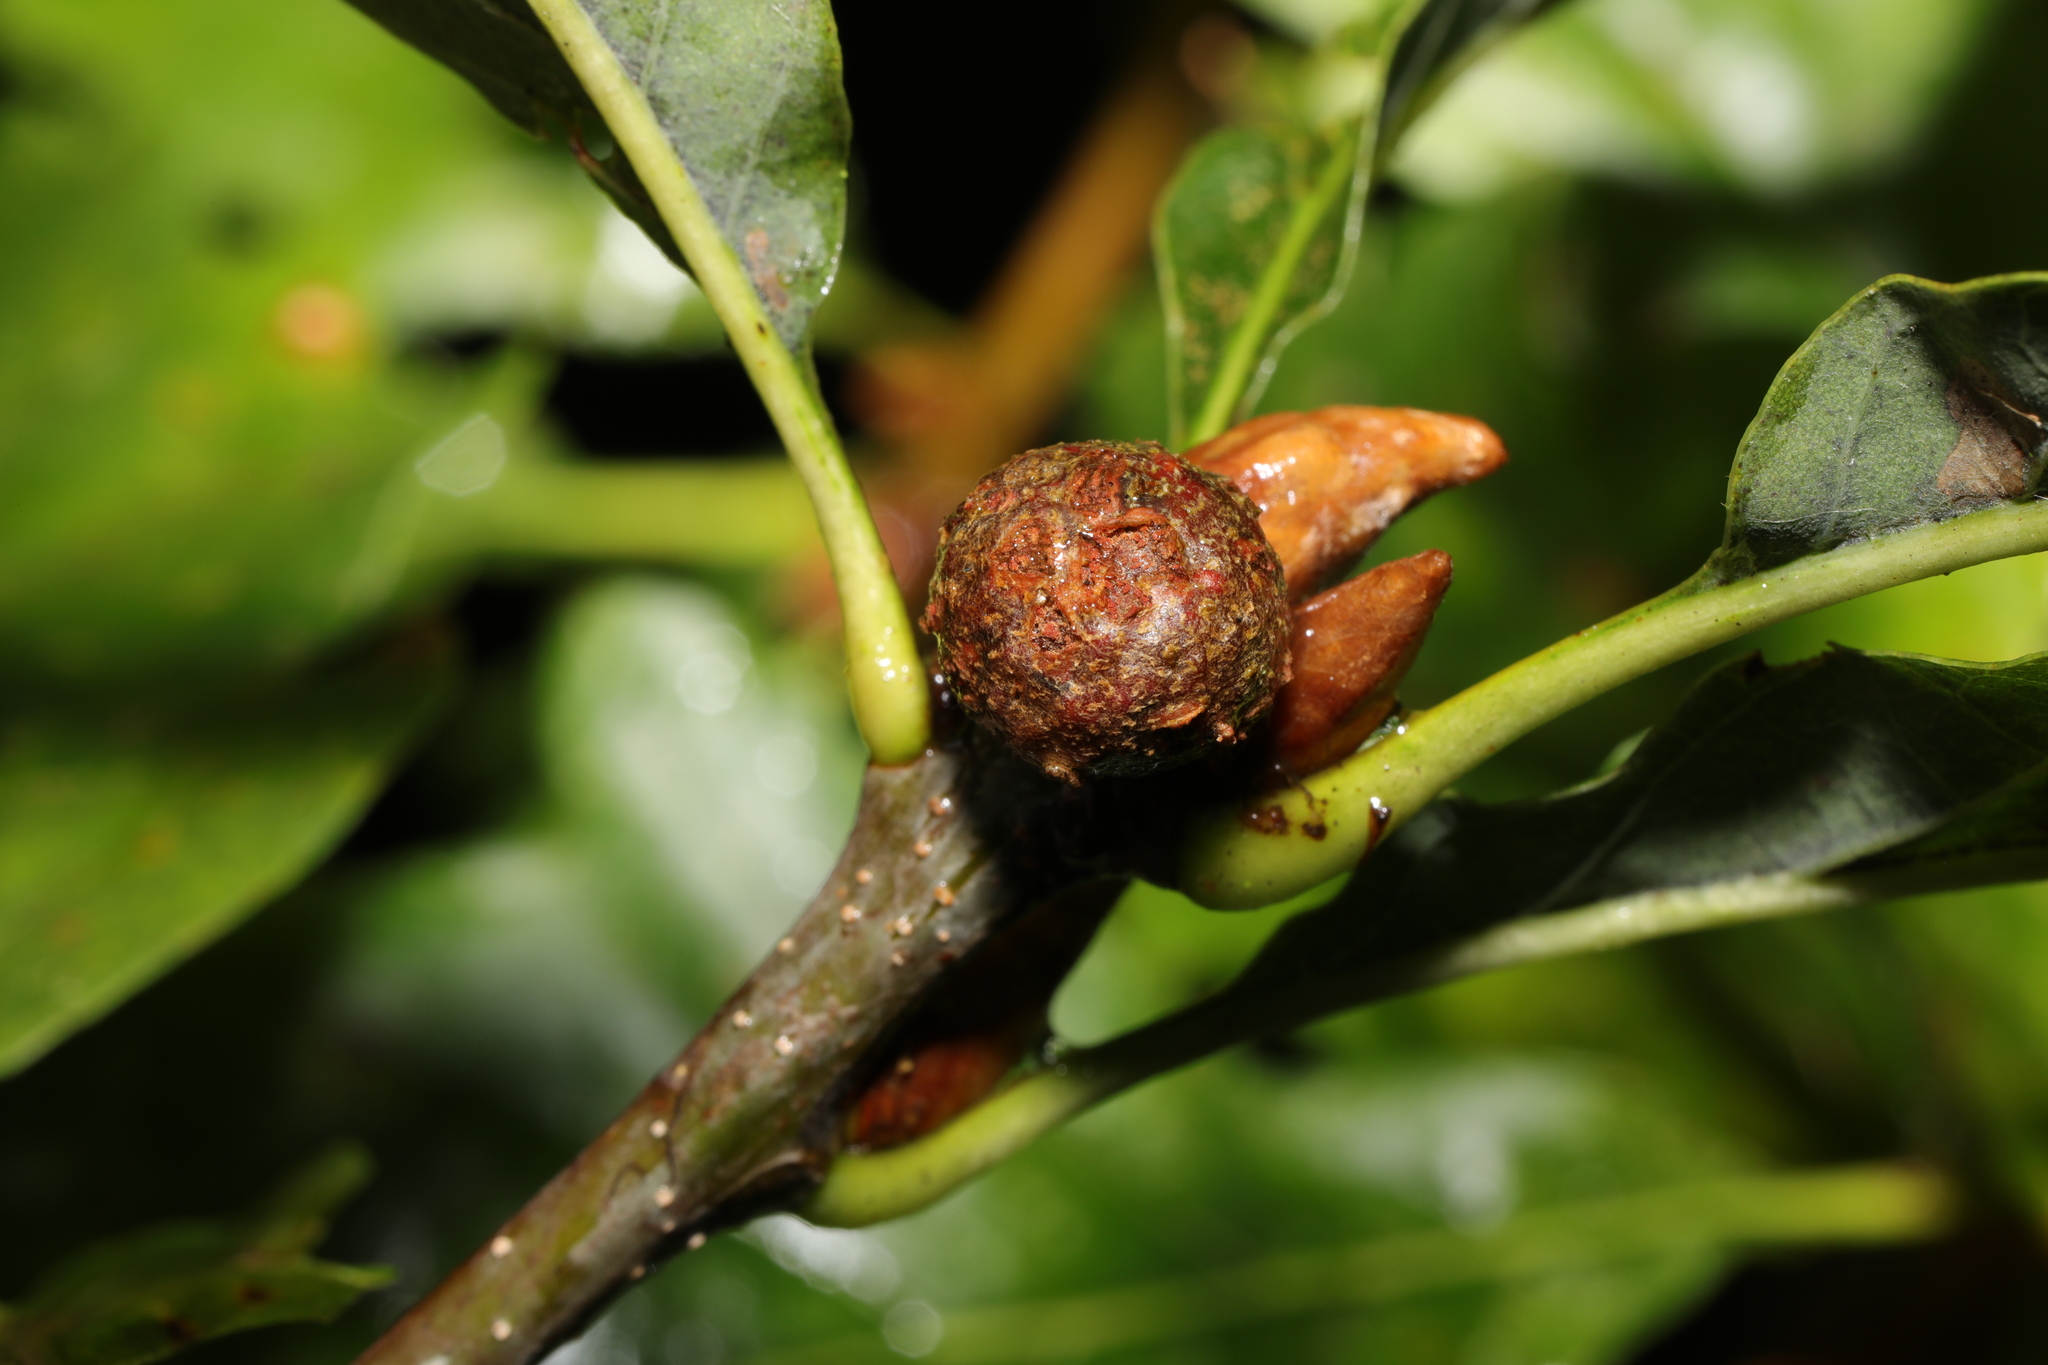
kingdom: Animalia
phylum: Arthropoda
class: Insecta
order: Hymenoptera
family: Cynipidae
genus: Andricus
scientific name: Andricus lignicolus
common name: Cola-nut gall
